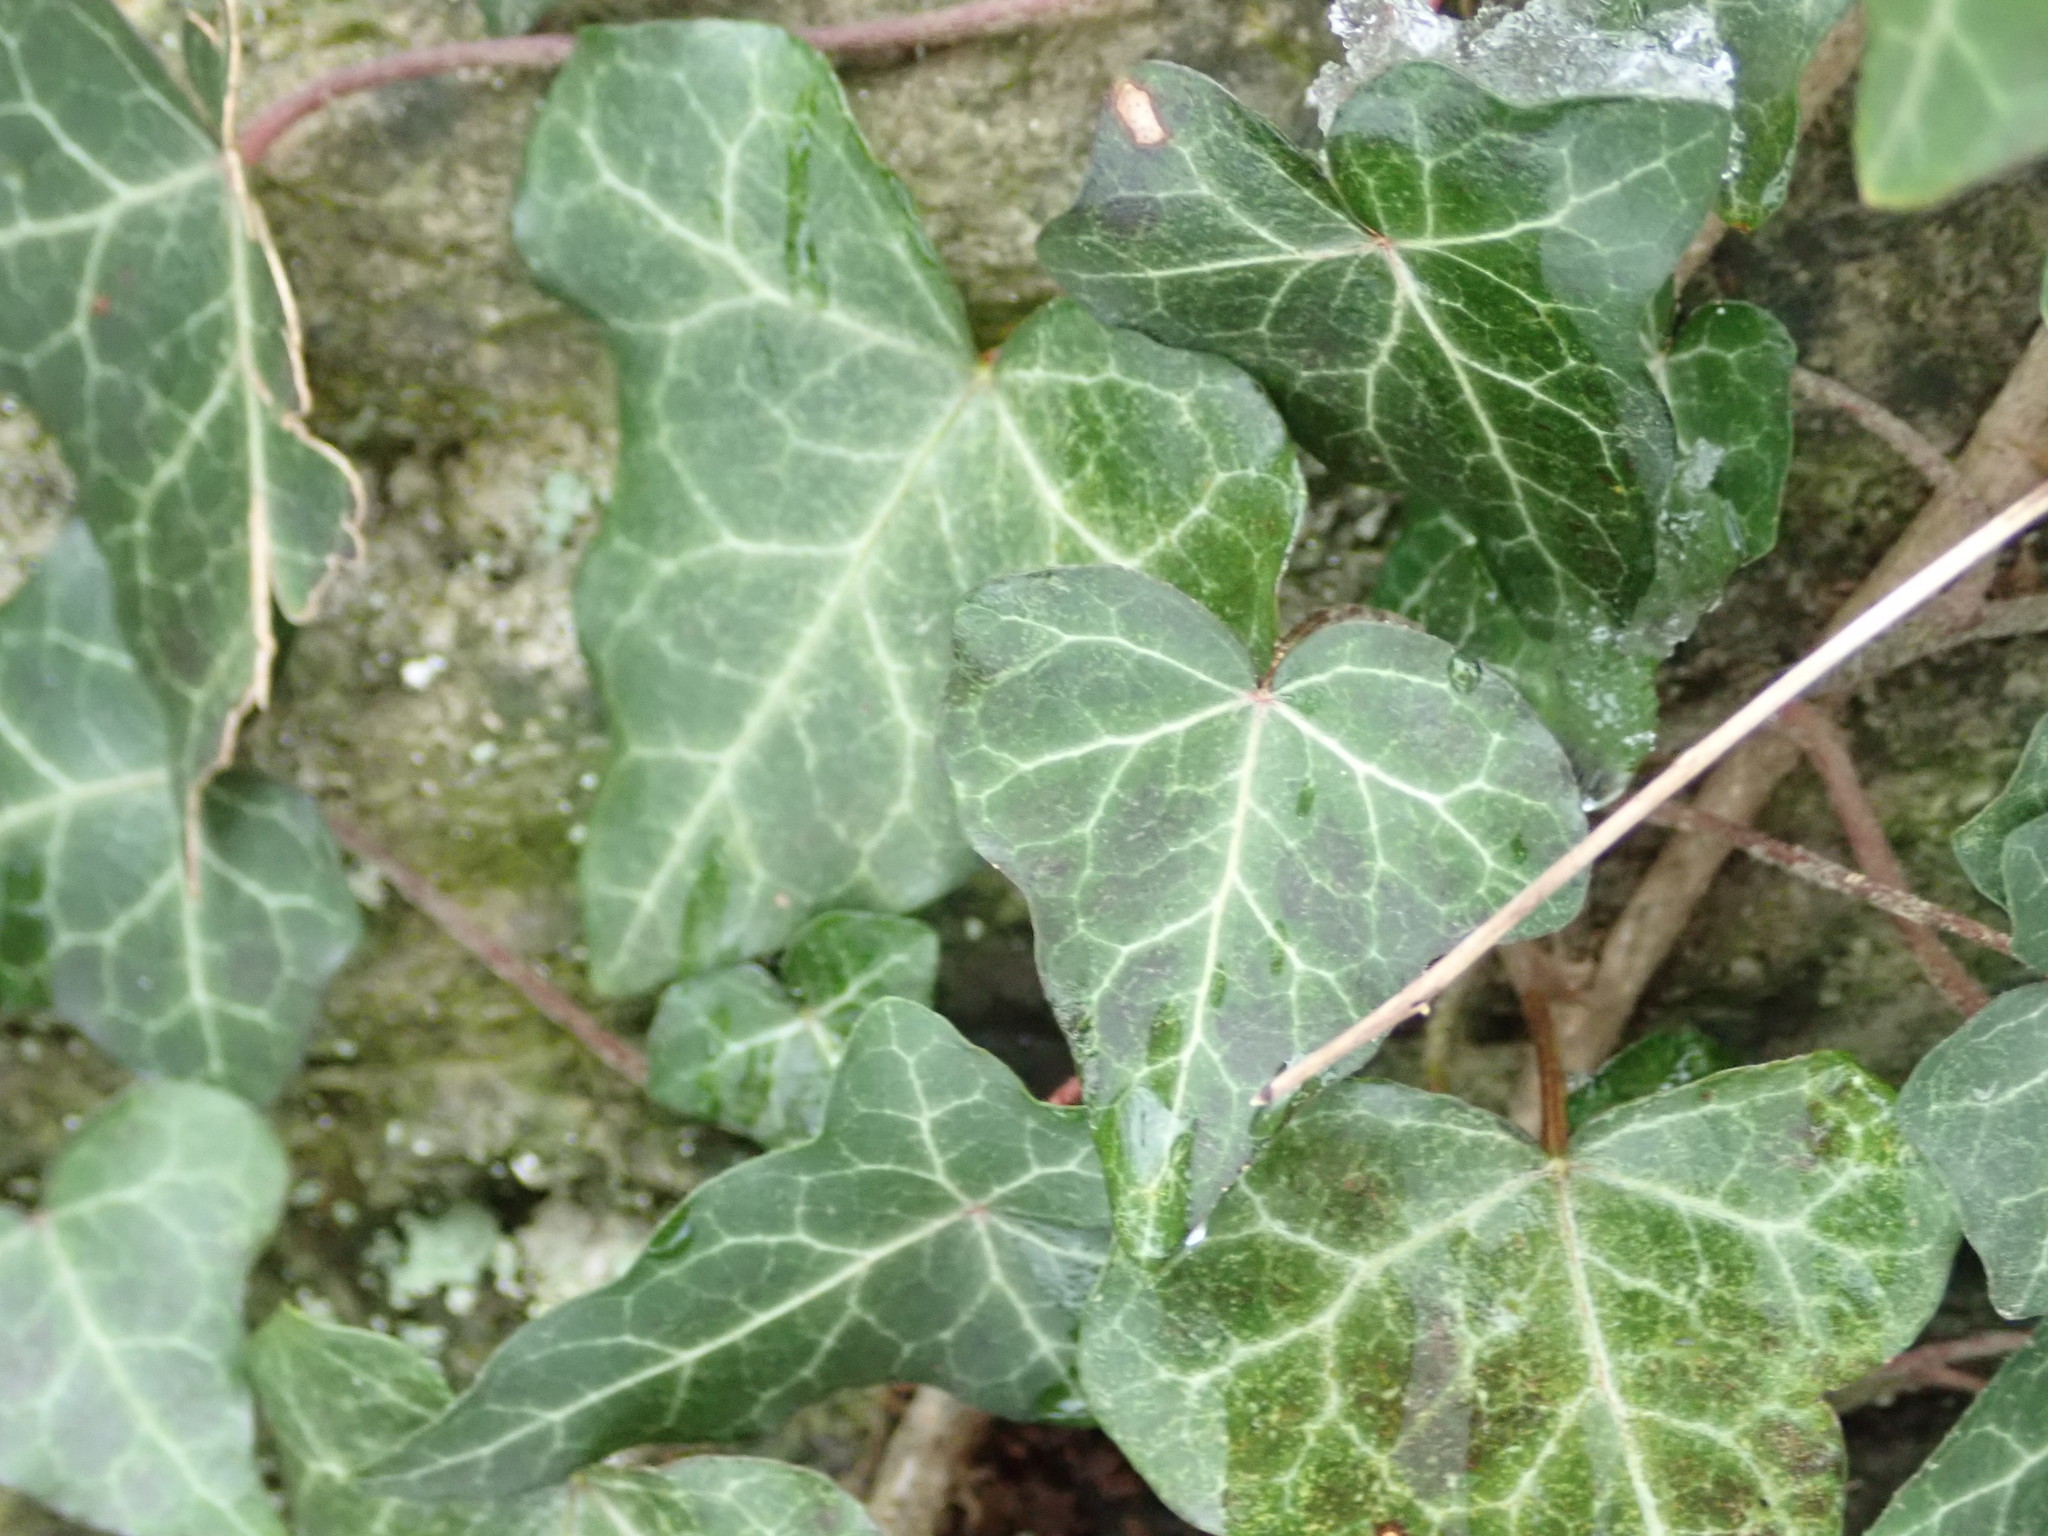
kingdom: Plantae
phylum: Tracheophyta
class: Magnoliopsida
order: Apiales
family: Araliaceae
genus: Hedera
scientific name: Hedera helix
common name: Ivy
